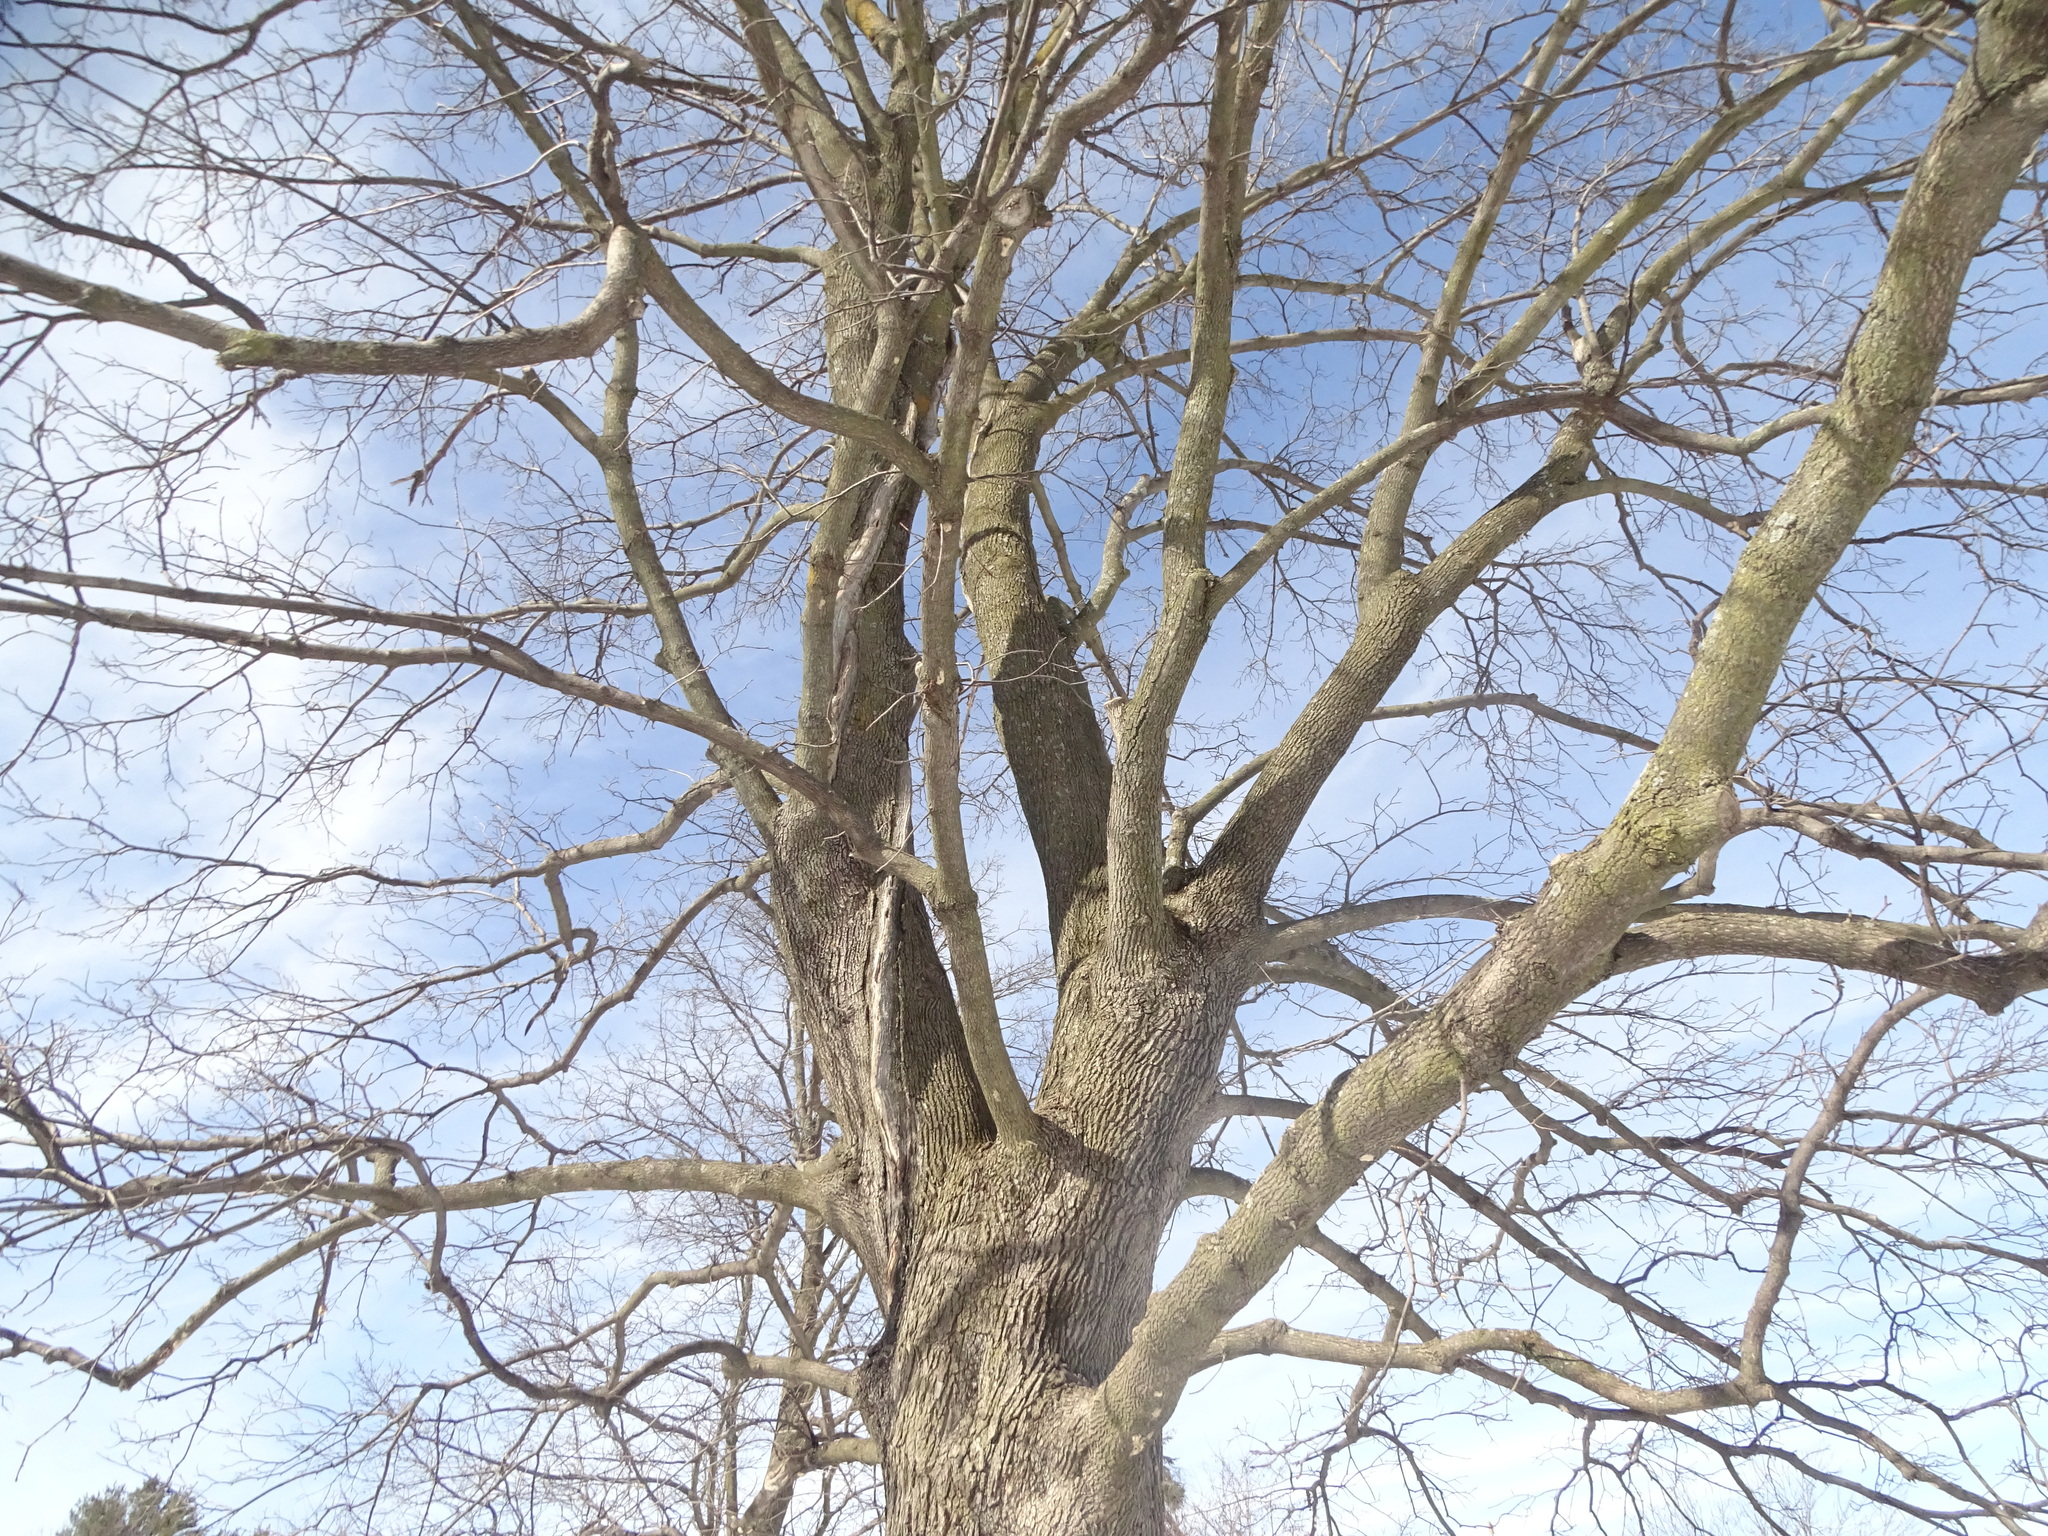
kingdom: Plantae
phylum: Tracheophyta
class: Magnoliopsida
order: Sapindales
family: Sapindaceae
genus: Acer
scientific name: Acer platanoides
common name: Norway maple
